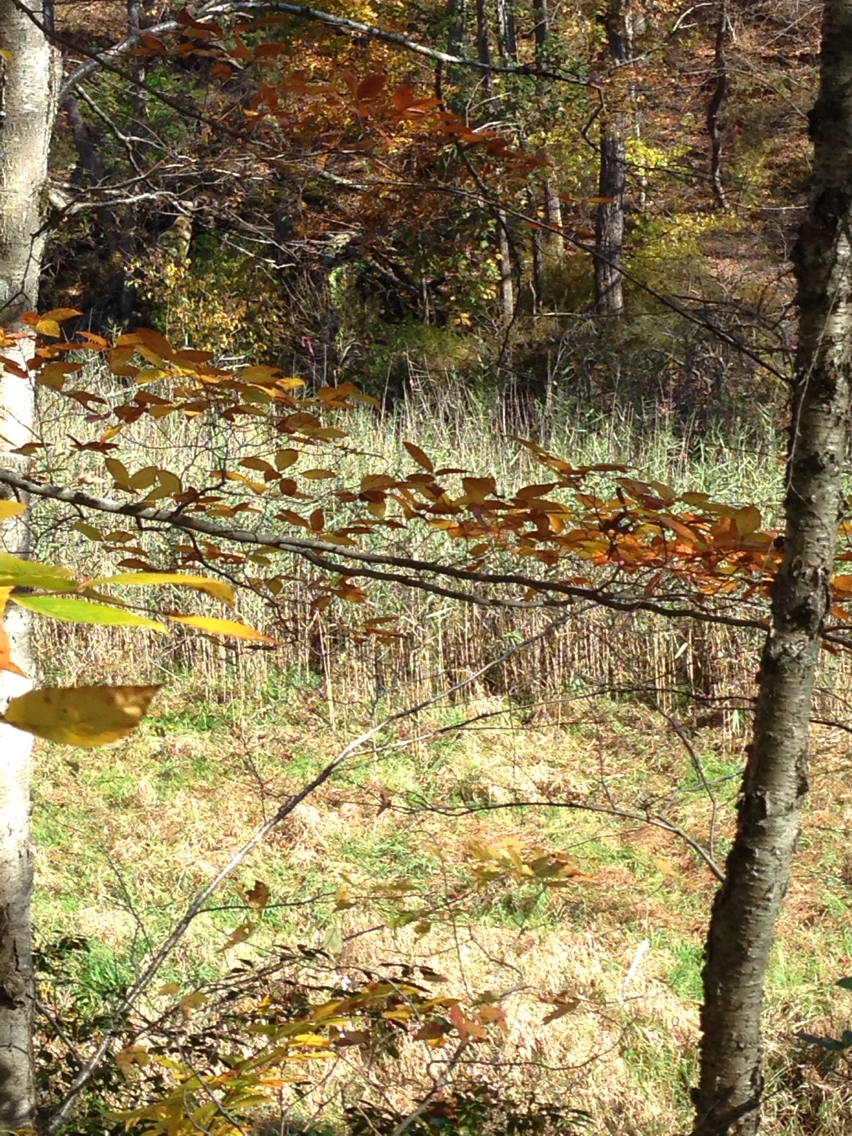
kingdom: Plantae
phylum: Tracheophyta
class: Liliopsida
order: Poales
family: Poaceae
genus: Phragmites
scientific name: Phragmites australis
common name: Common reed
